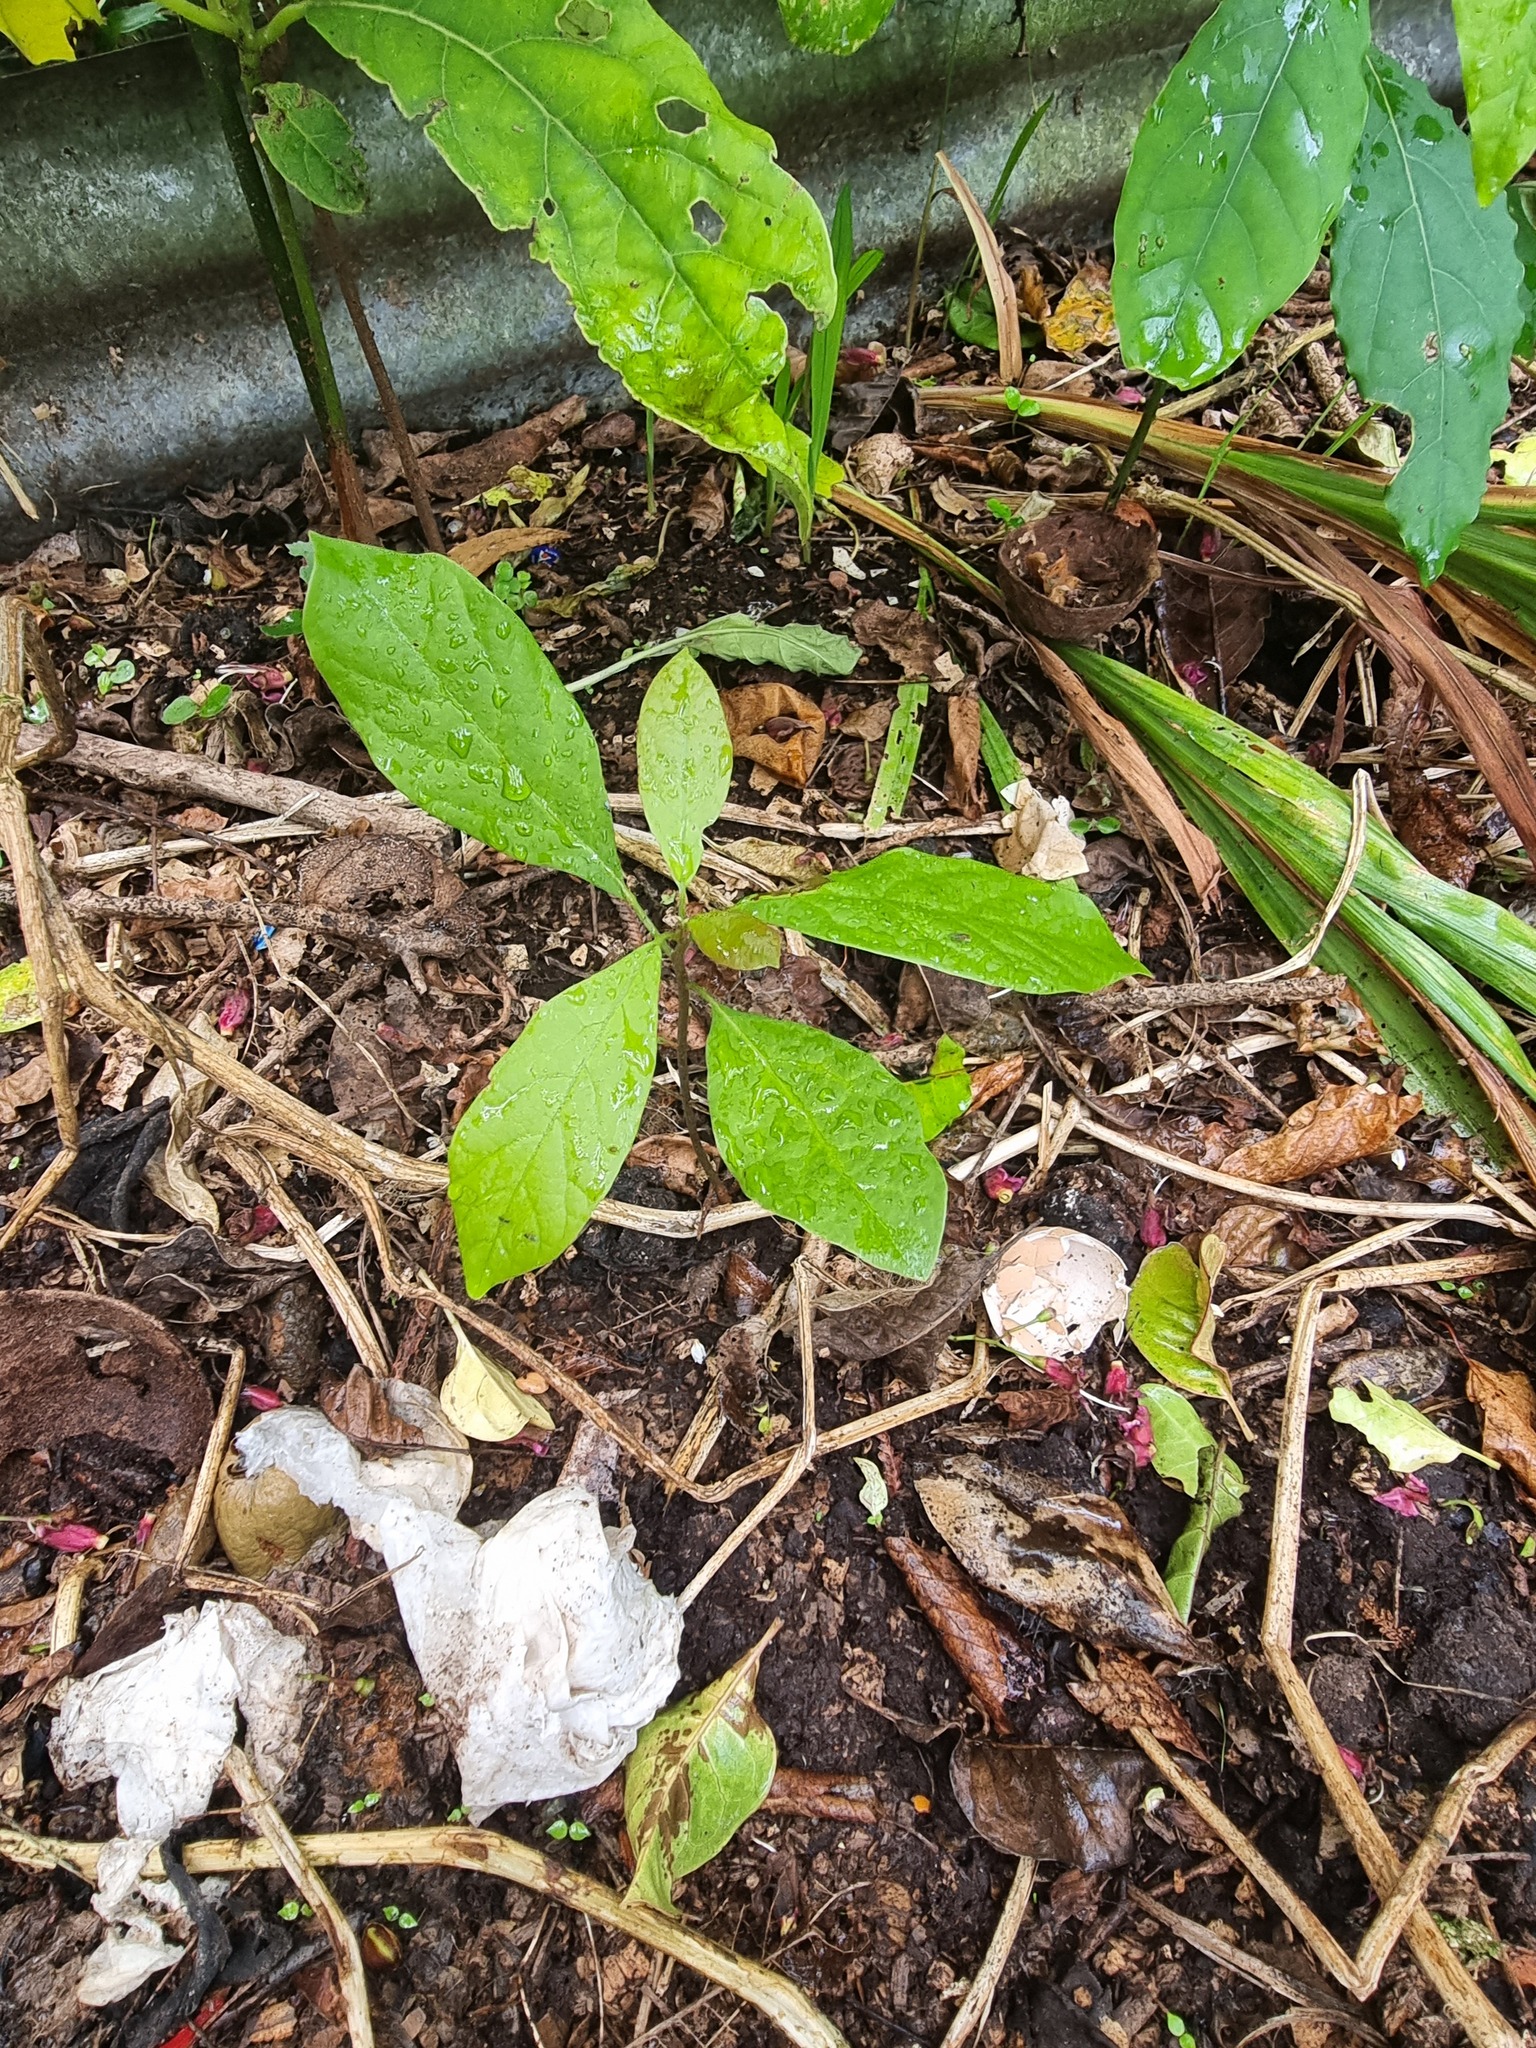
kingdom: Plantae
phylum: Tracheophyta
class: Magnoliopsida
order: Laurales
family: Lauraceae
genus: Persea
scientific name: Persea americana
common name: Avocado
